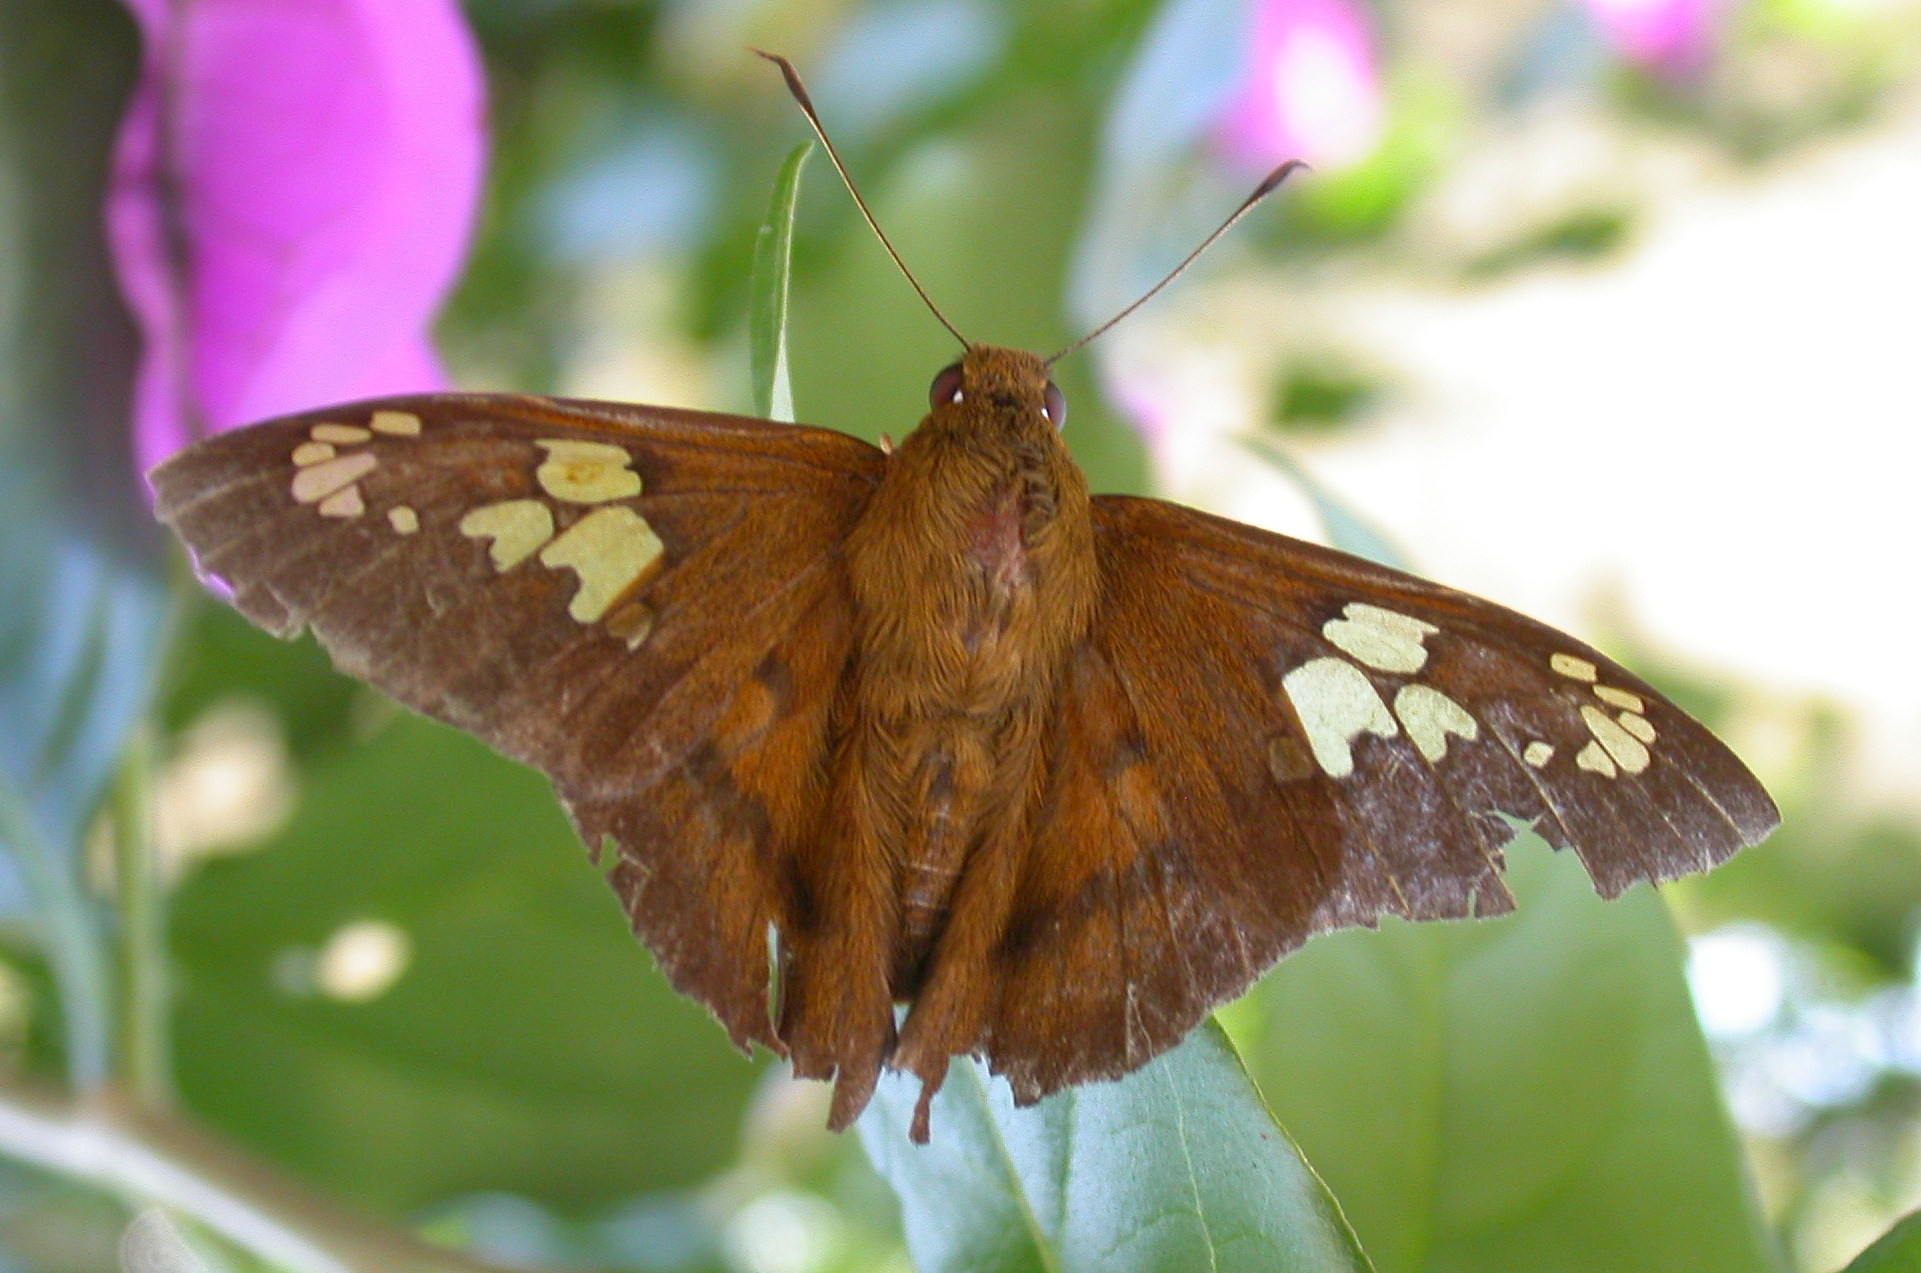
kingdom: Animalia
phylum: Arthropoda
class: Insecta
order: Lepidoptera
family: Hesperiidae
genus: Nascus
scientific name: Nascus phocus
